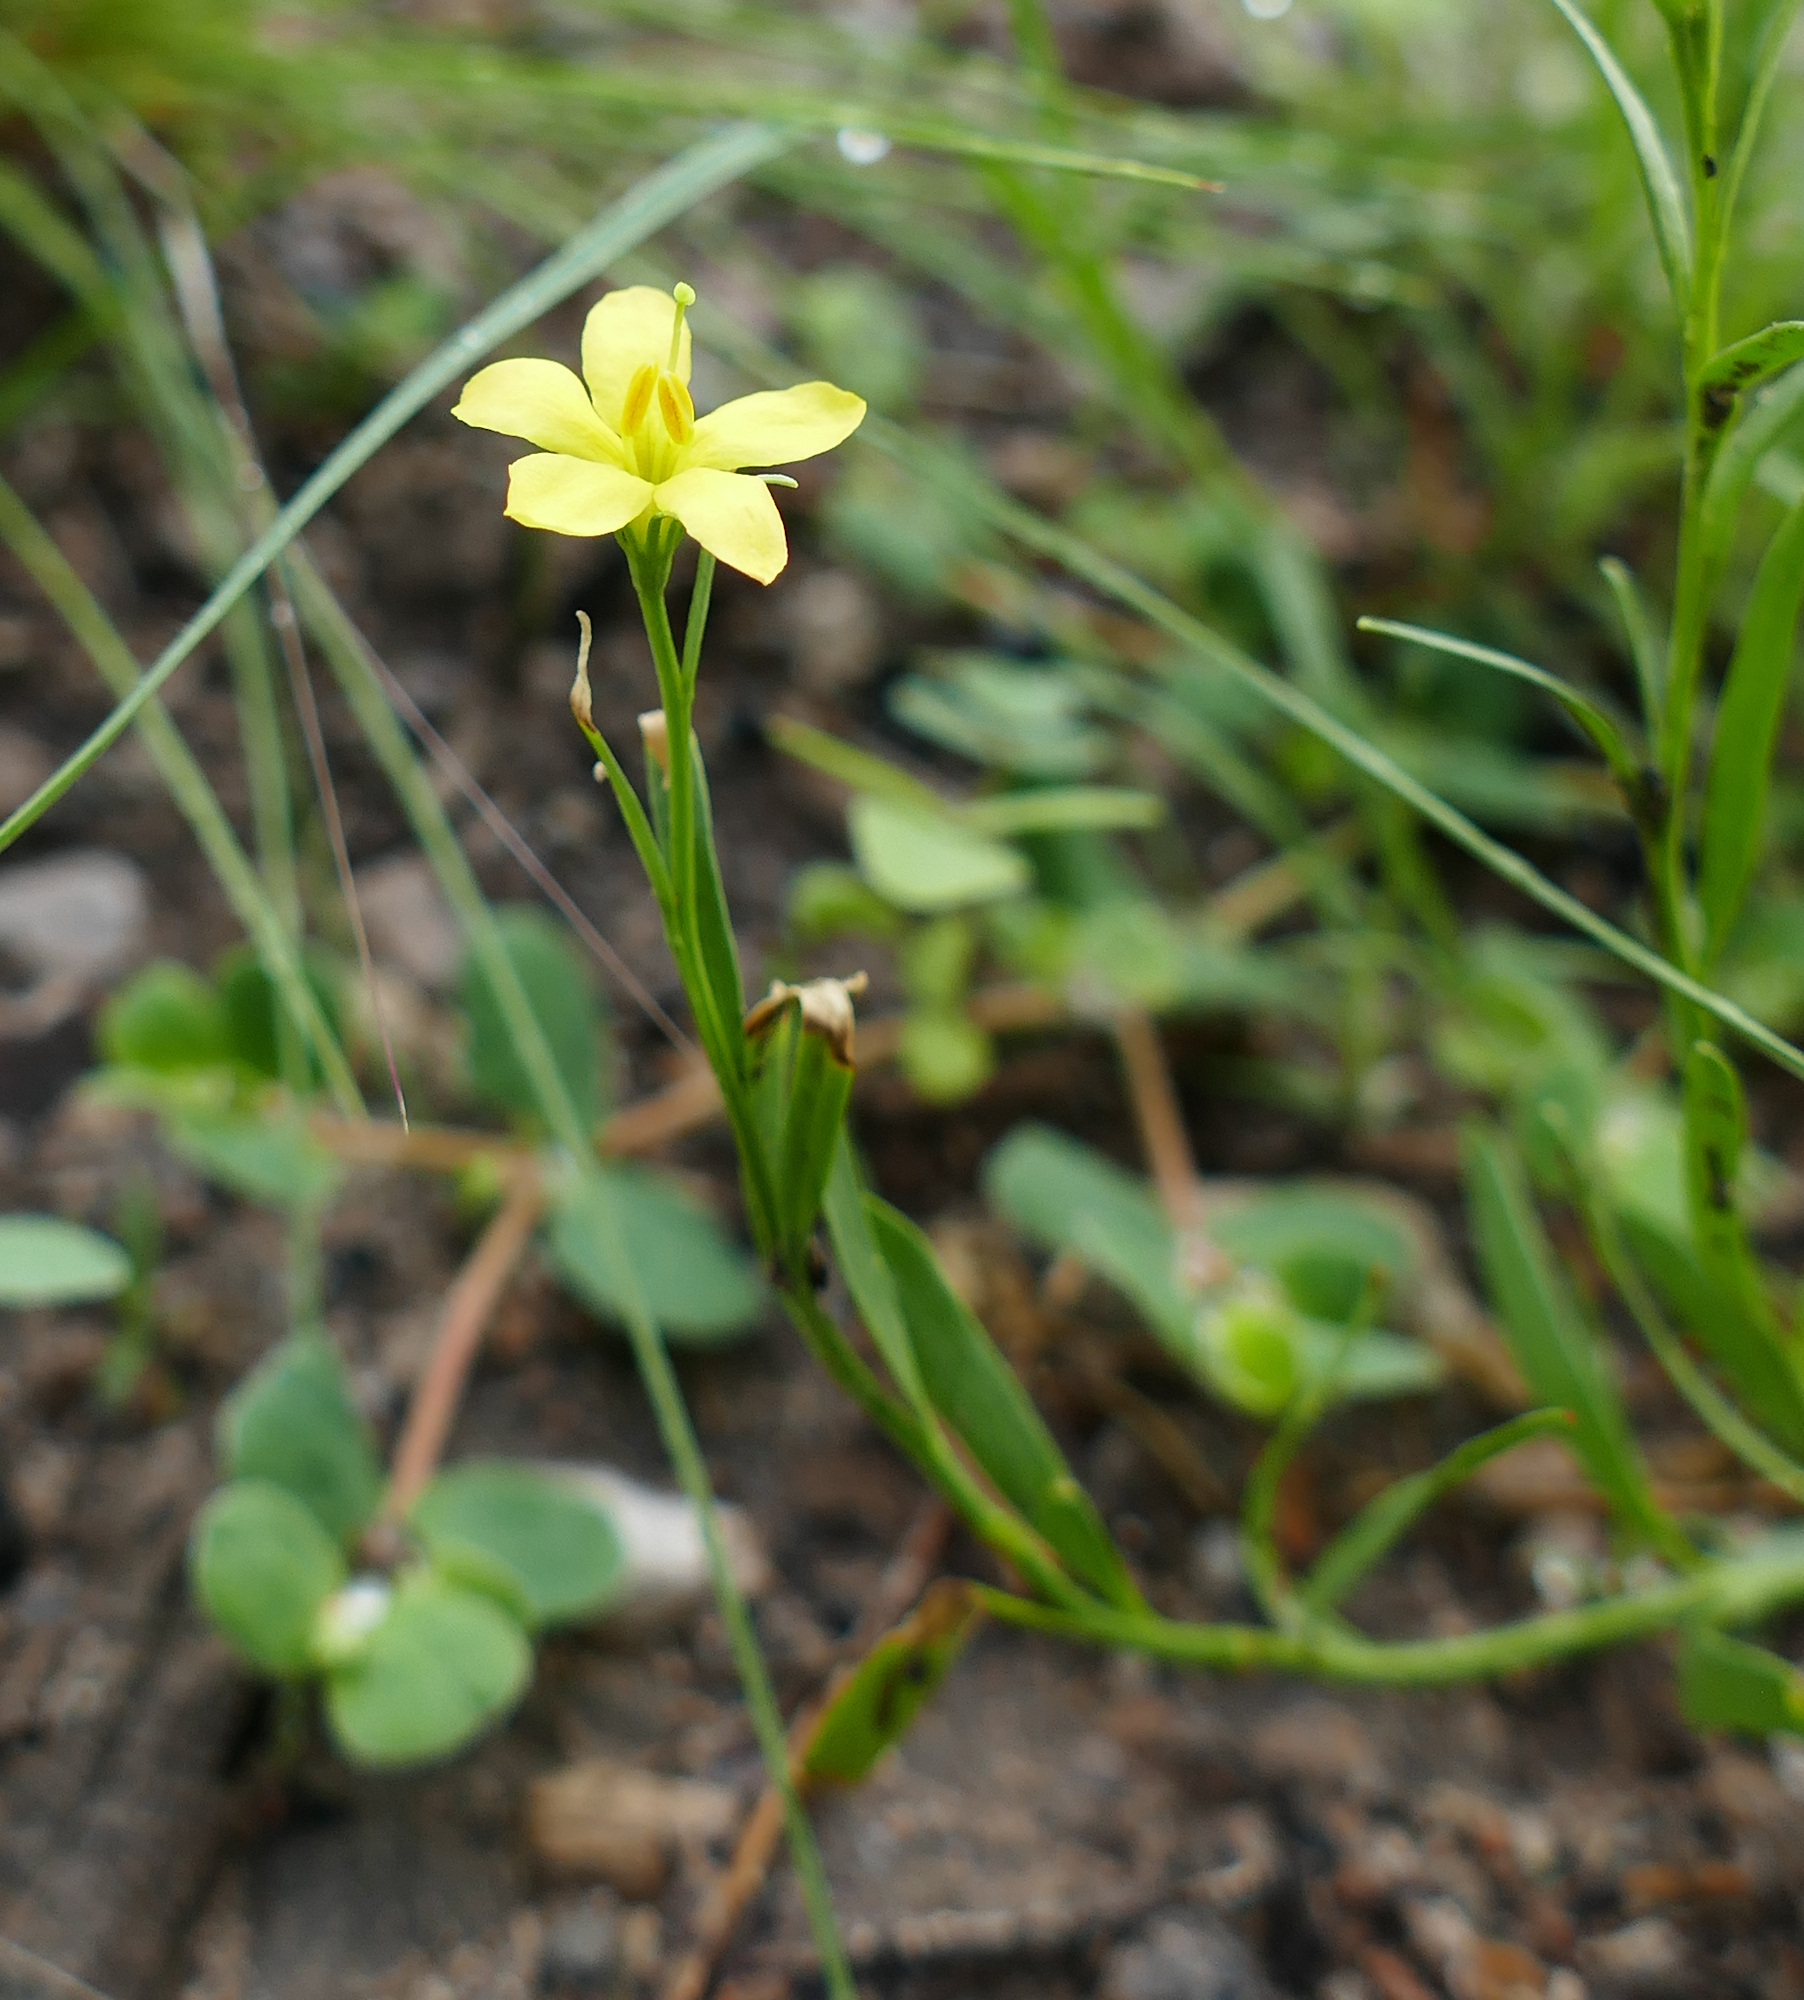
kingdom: Plantae
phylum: Tracheophyta
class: Magnoliopsida
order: Lamiales
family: Oleaceae
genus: Menodora
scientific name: Menodora scabra
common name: Rough menodora
